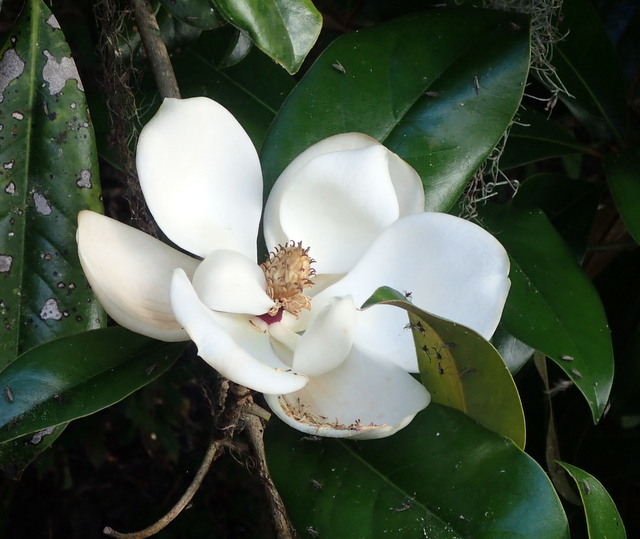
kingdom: Plantae
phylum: Tracheophyta
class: Magnoliopsida
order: Magnoliales
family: Magnoliaceae
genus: Magnolia
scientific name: Magnolia grandiflora
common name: Southern magnolia
